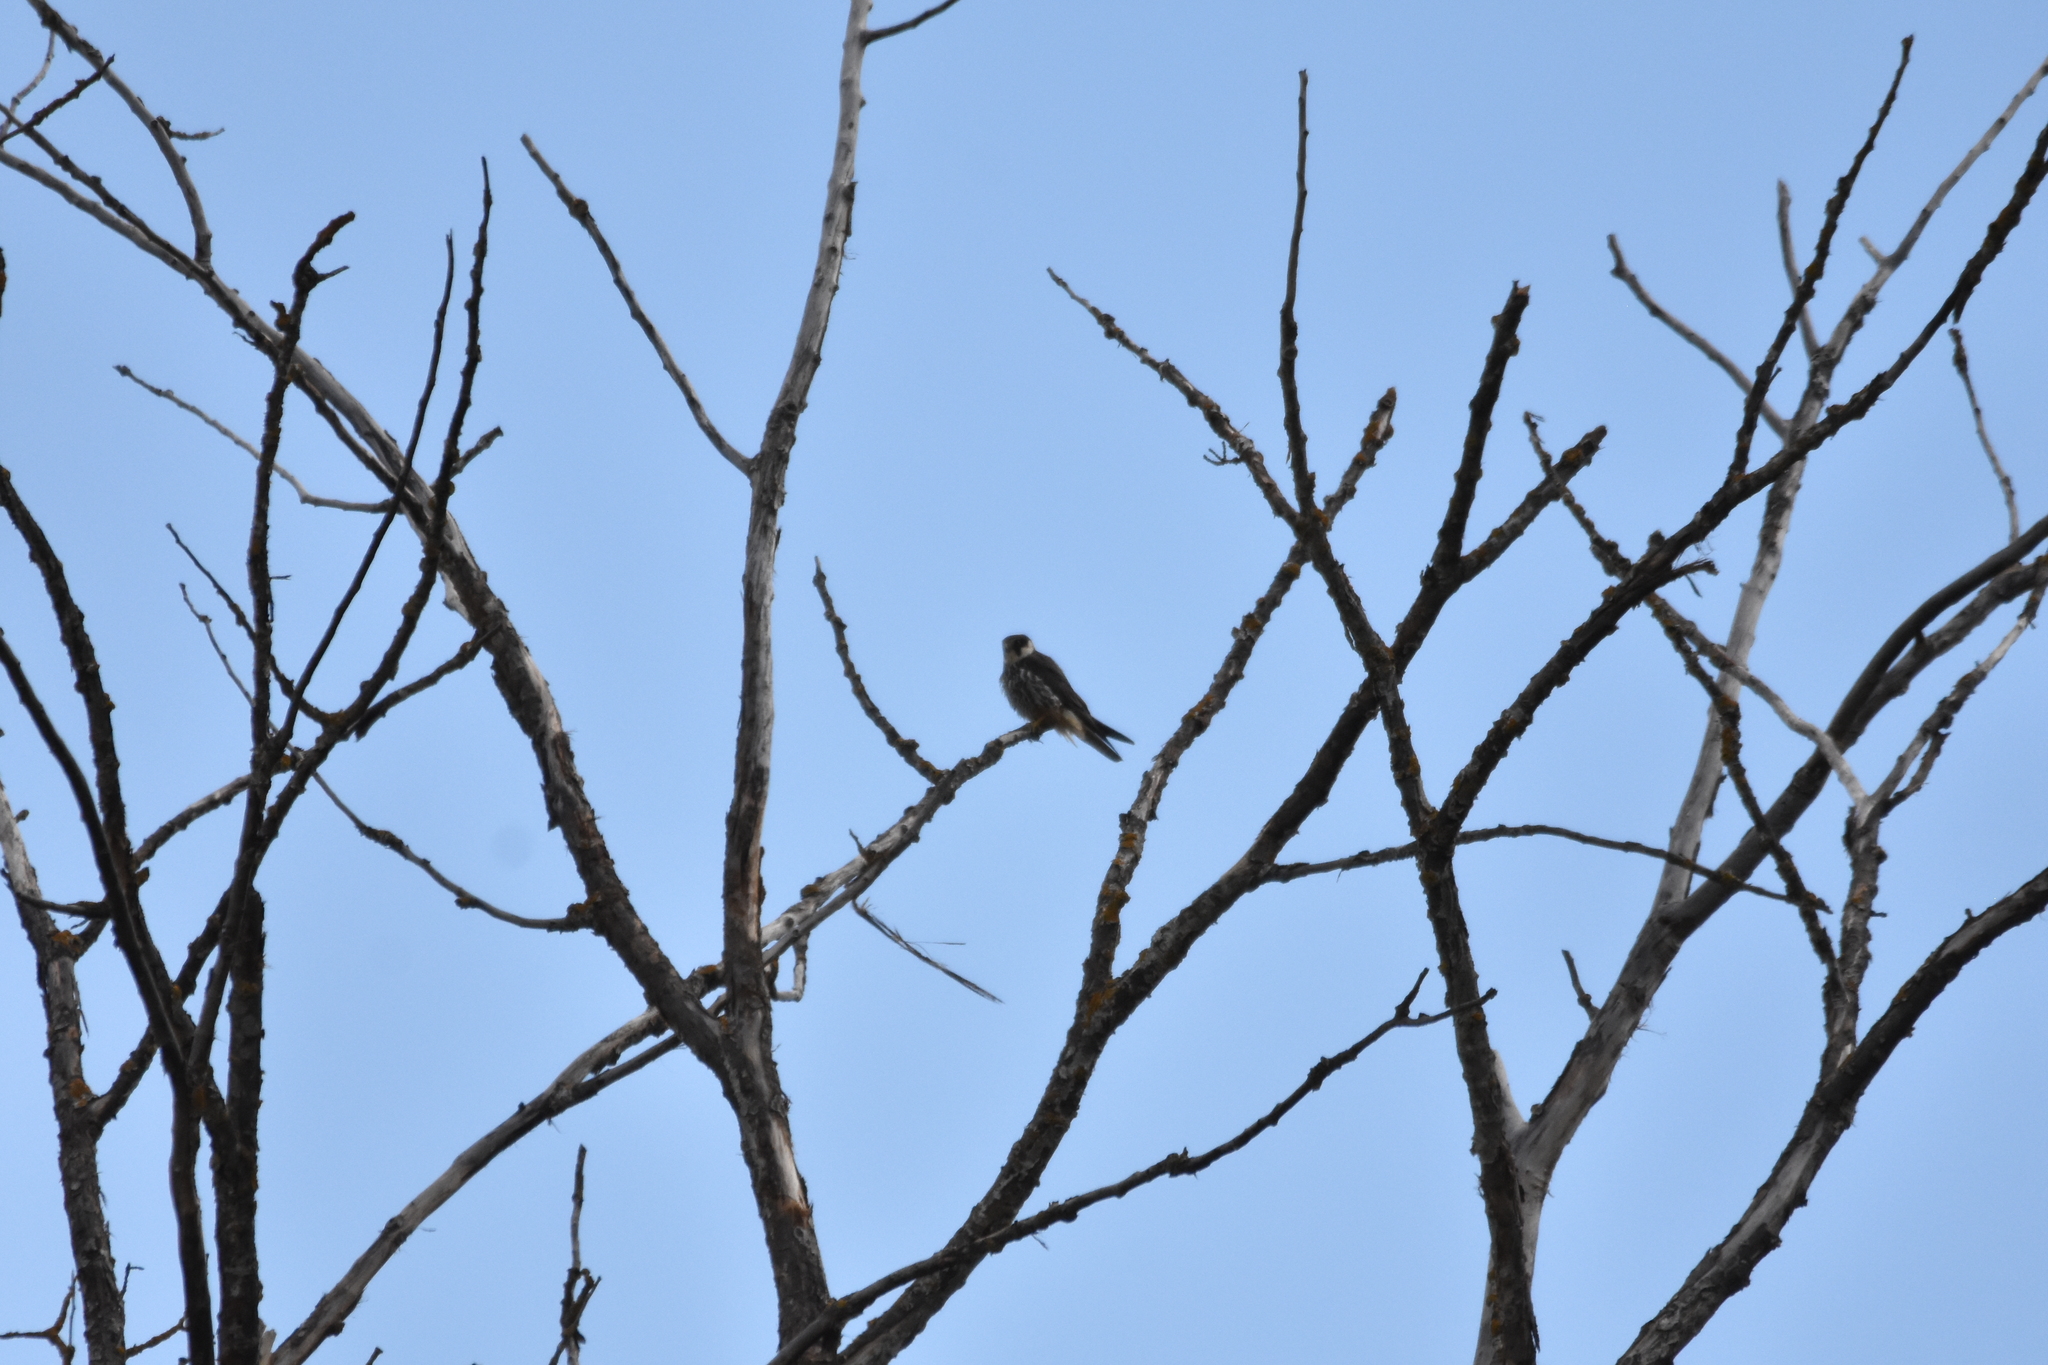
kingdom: Animalia
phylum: Chordata
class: Aves
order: Falconiformes
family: Falconidae
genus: Falco
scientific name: Falco subbuteo
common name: Eurasian hobby
